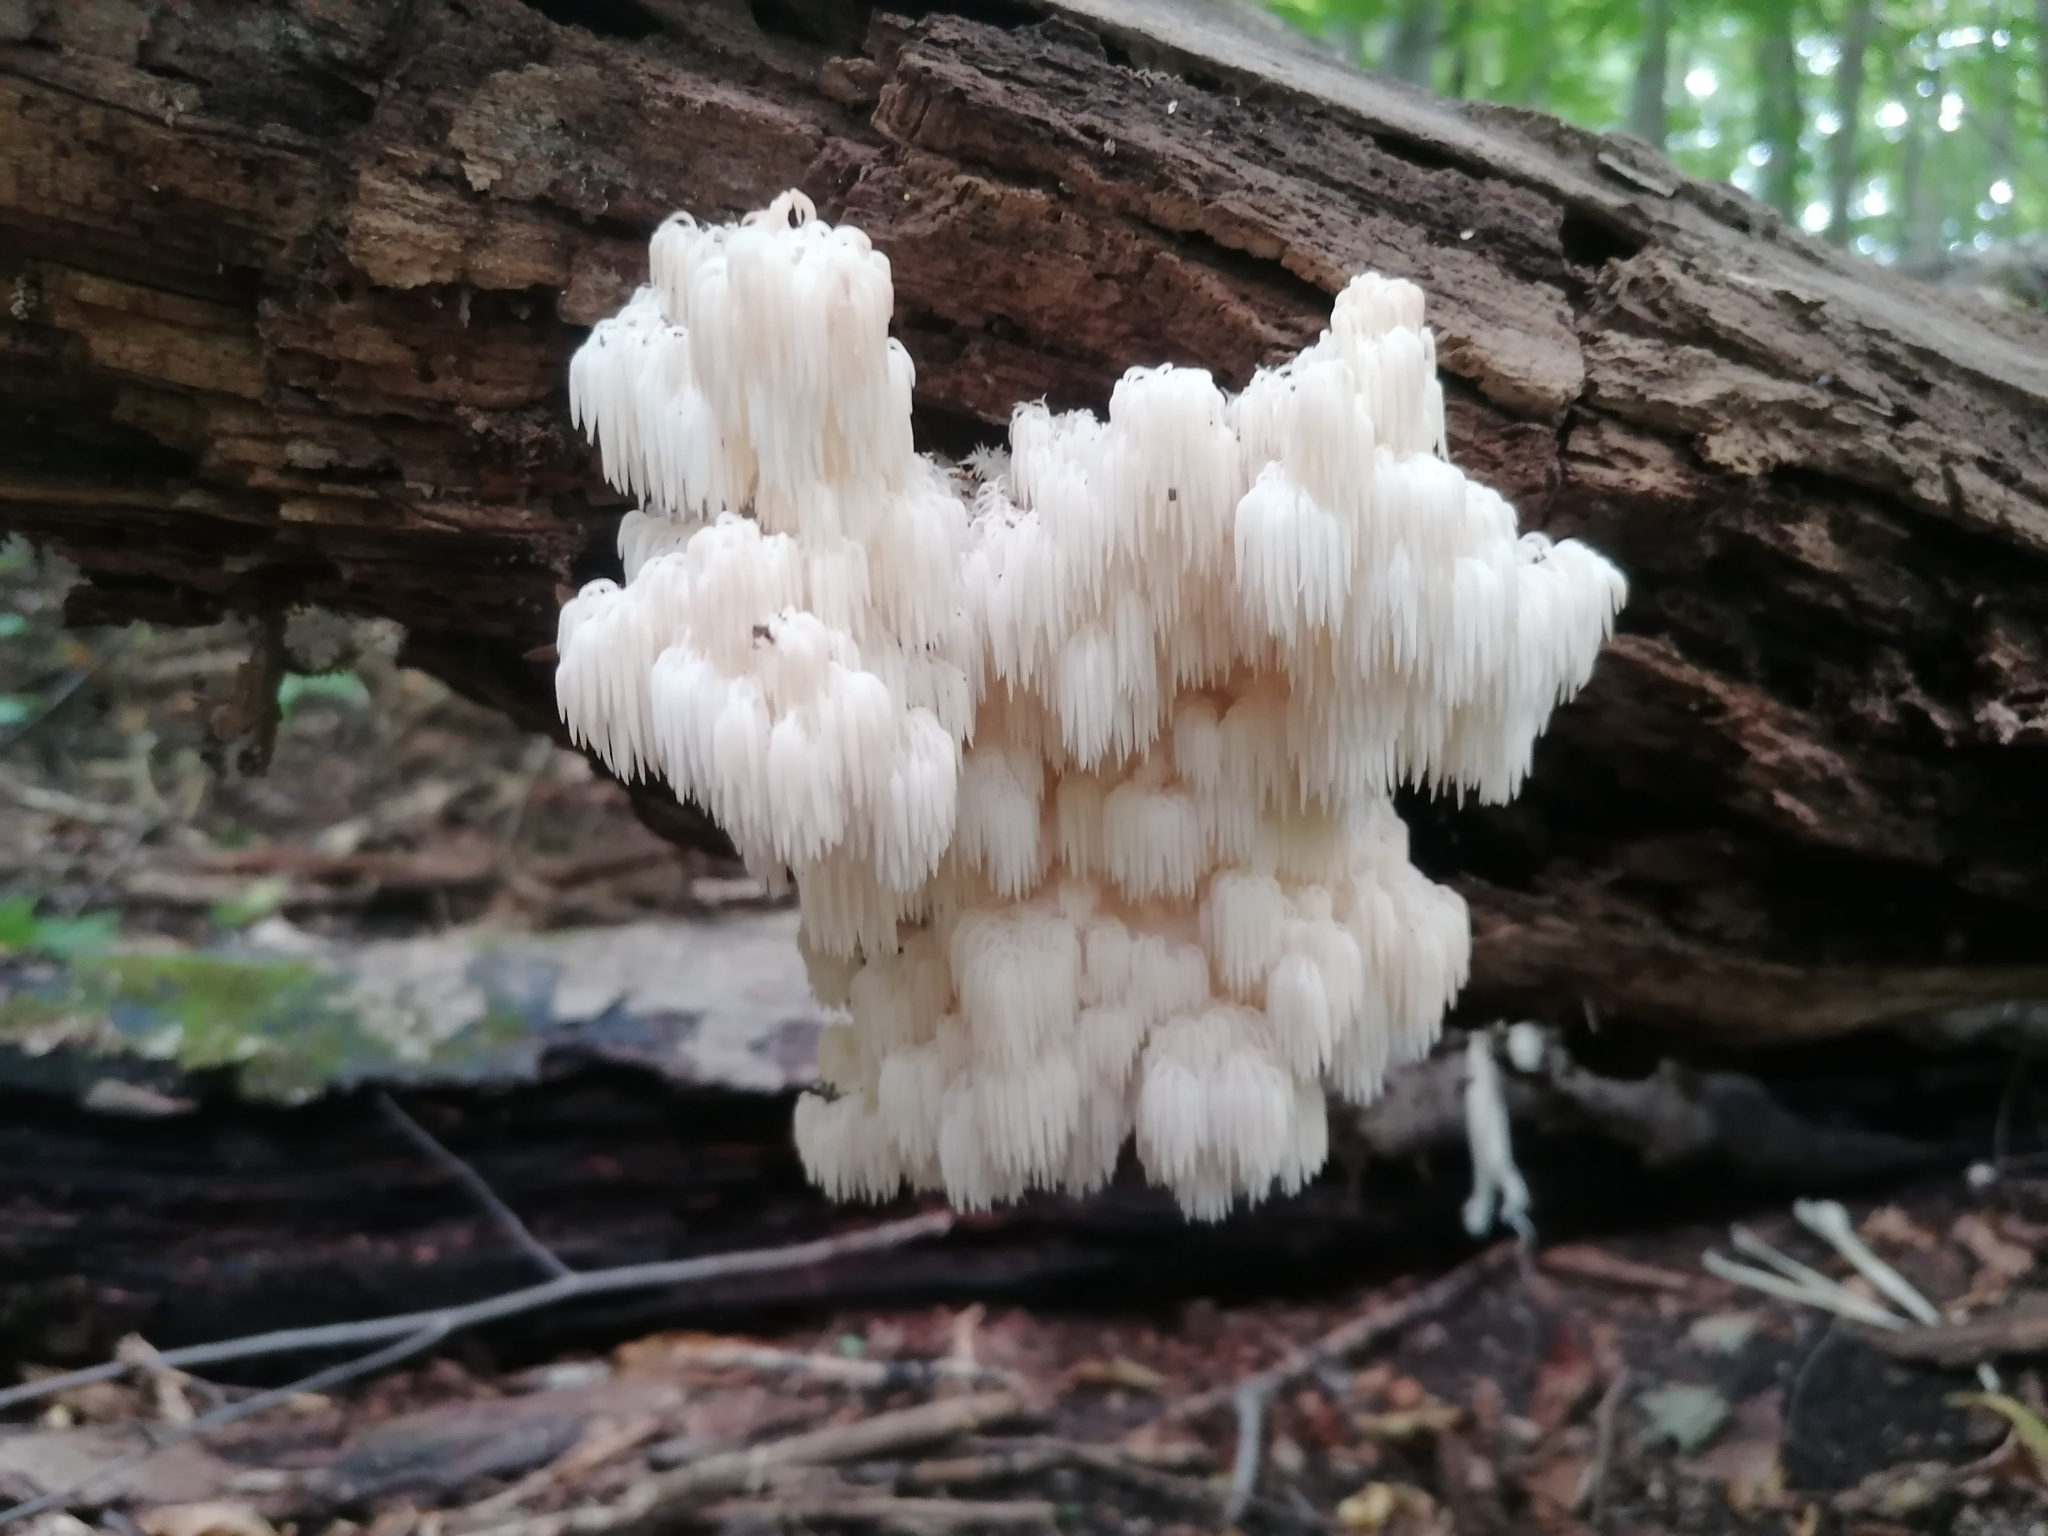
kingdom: Fungi
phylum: Basidiomycota
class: Agaricomycetes
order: Russulales
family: Hericiaceae
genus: Hericium
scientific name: Hericium americanum
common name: Bear's head tooth
